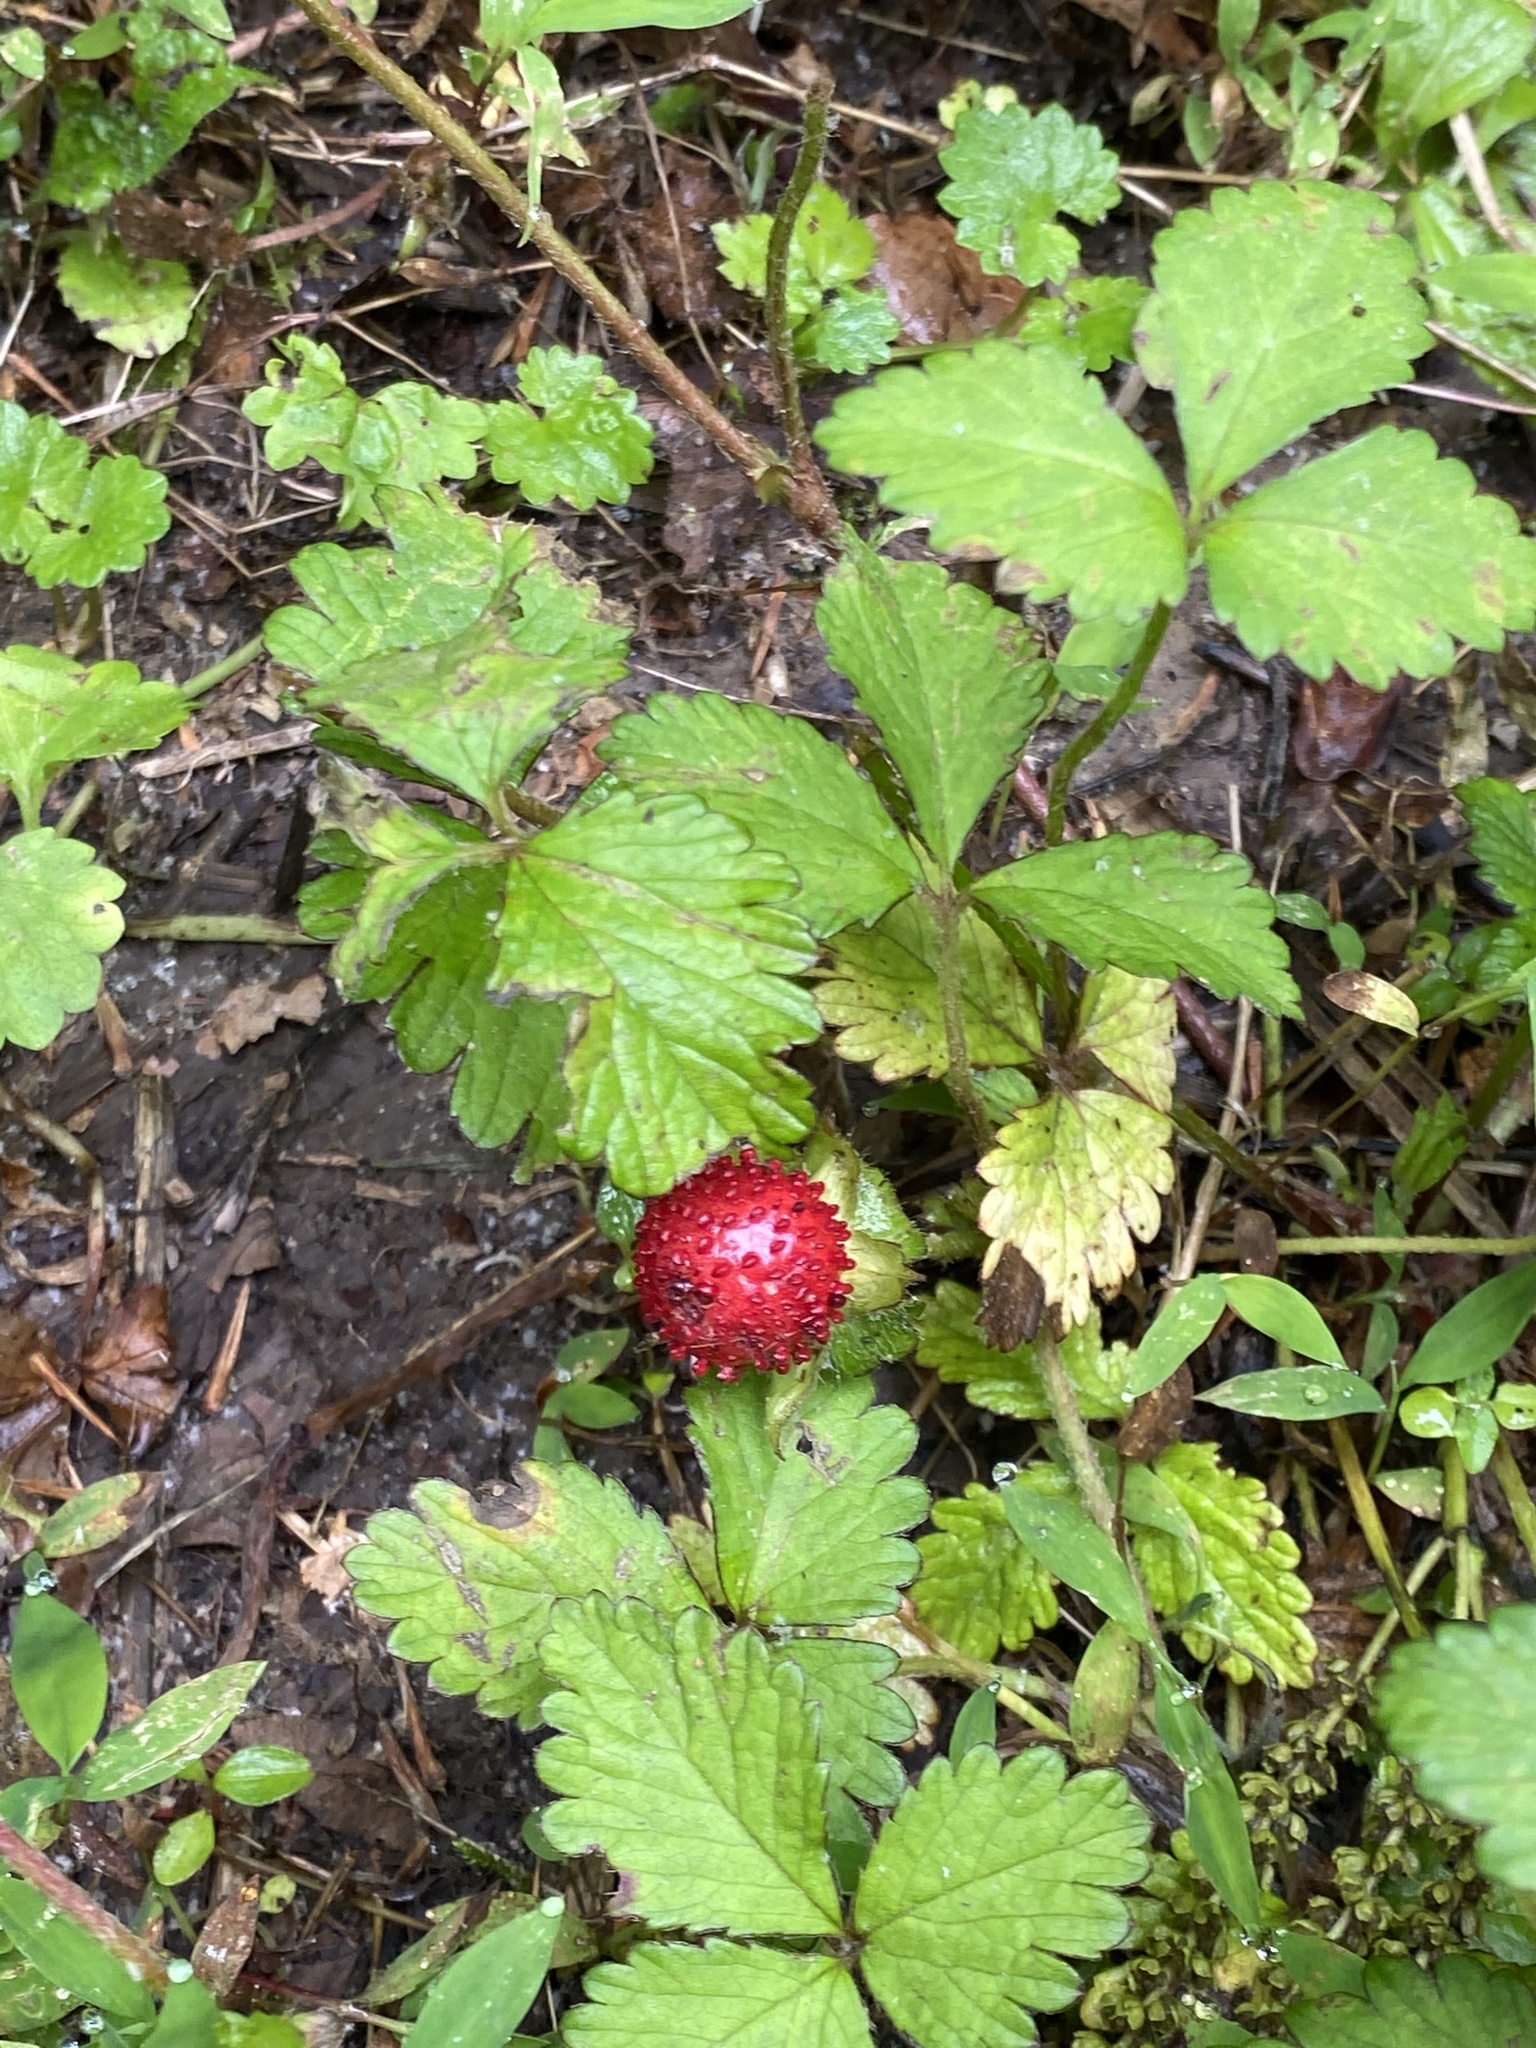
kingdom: Plantae
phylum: Tracheophyta
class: Magnoliopsida
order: Rosales
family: Rosaceae
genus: Potentilla
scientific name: Potentilla indica
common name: Yellow-flowered strawberry
